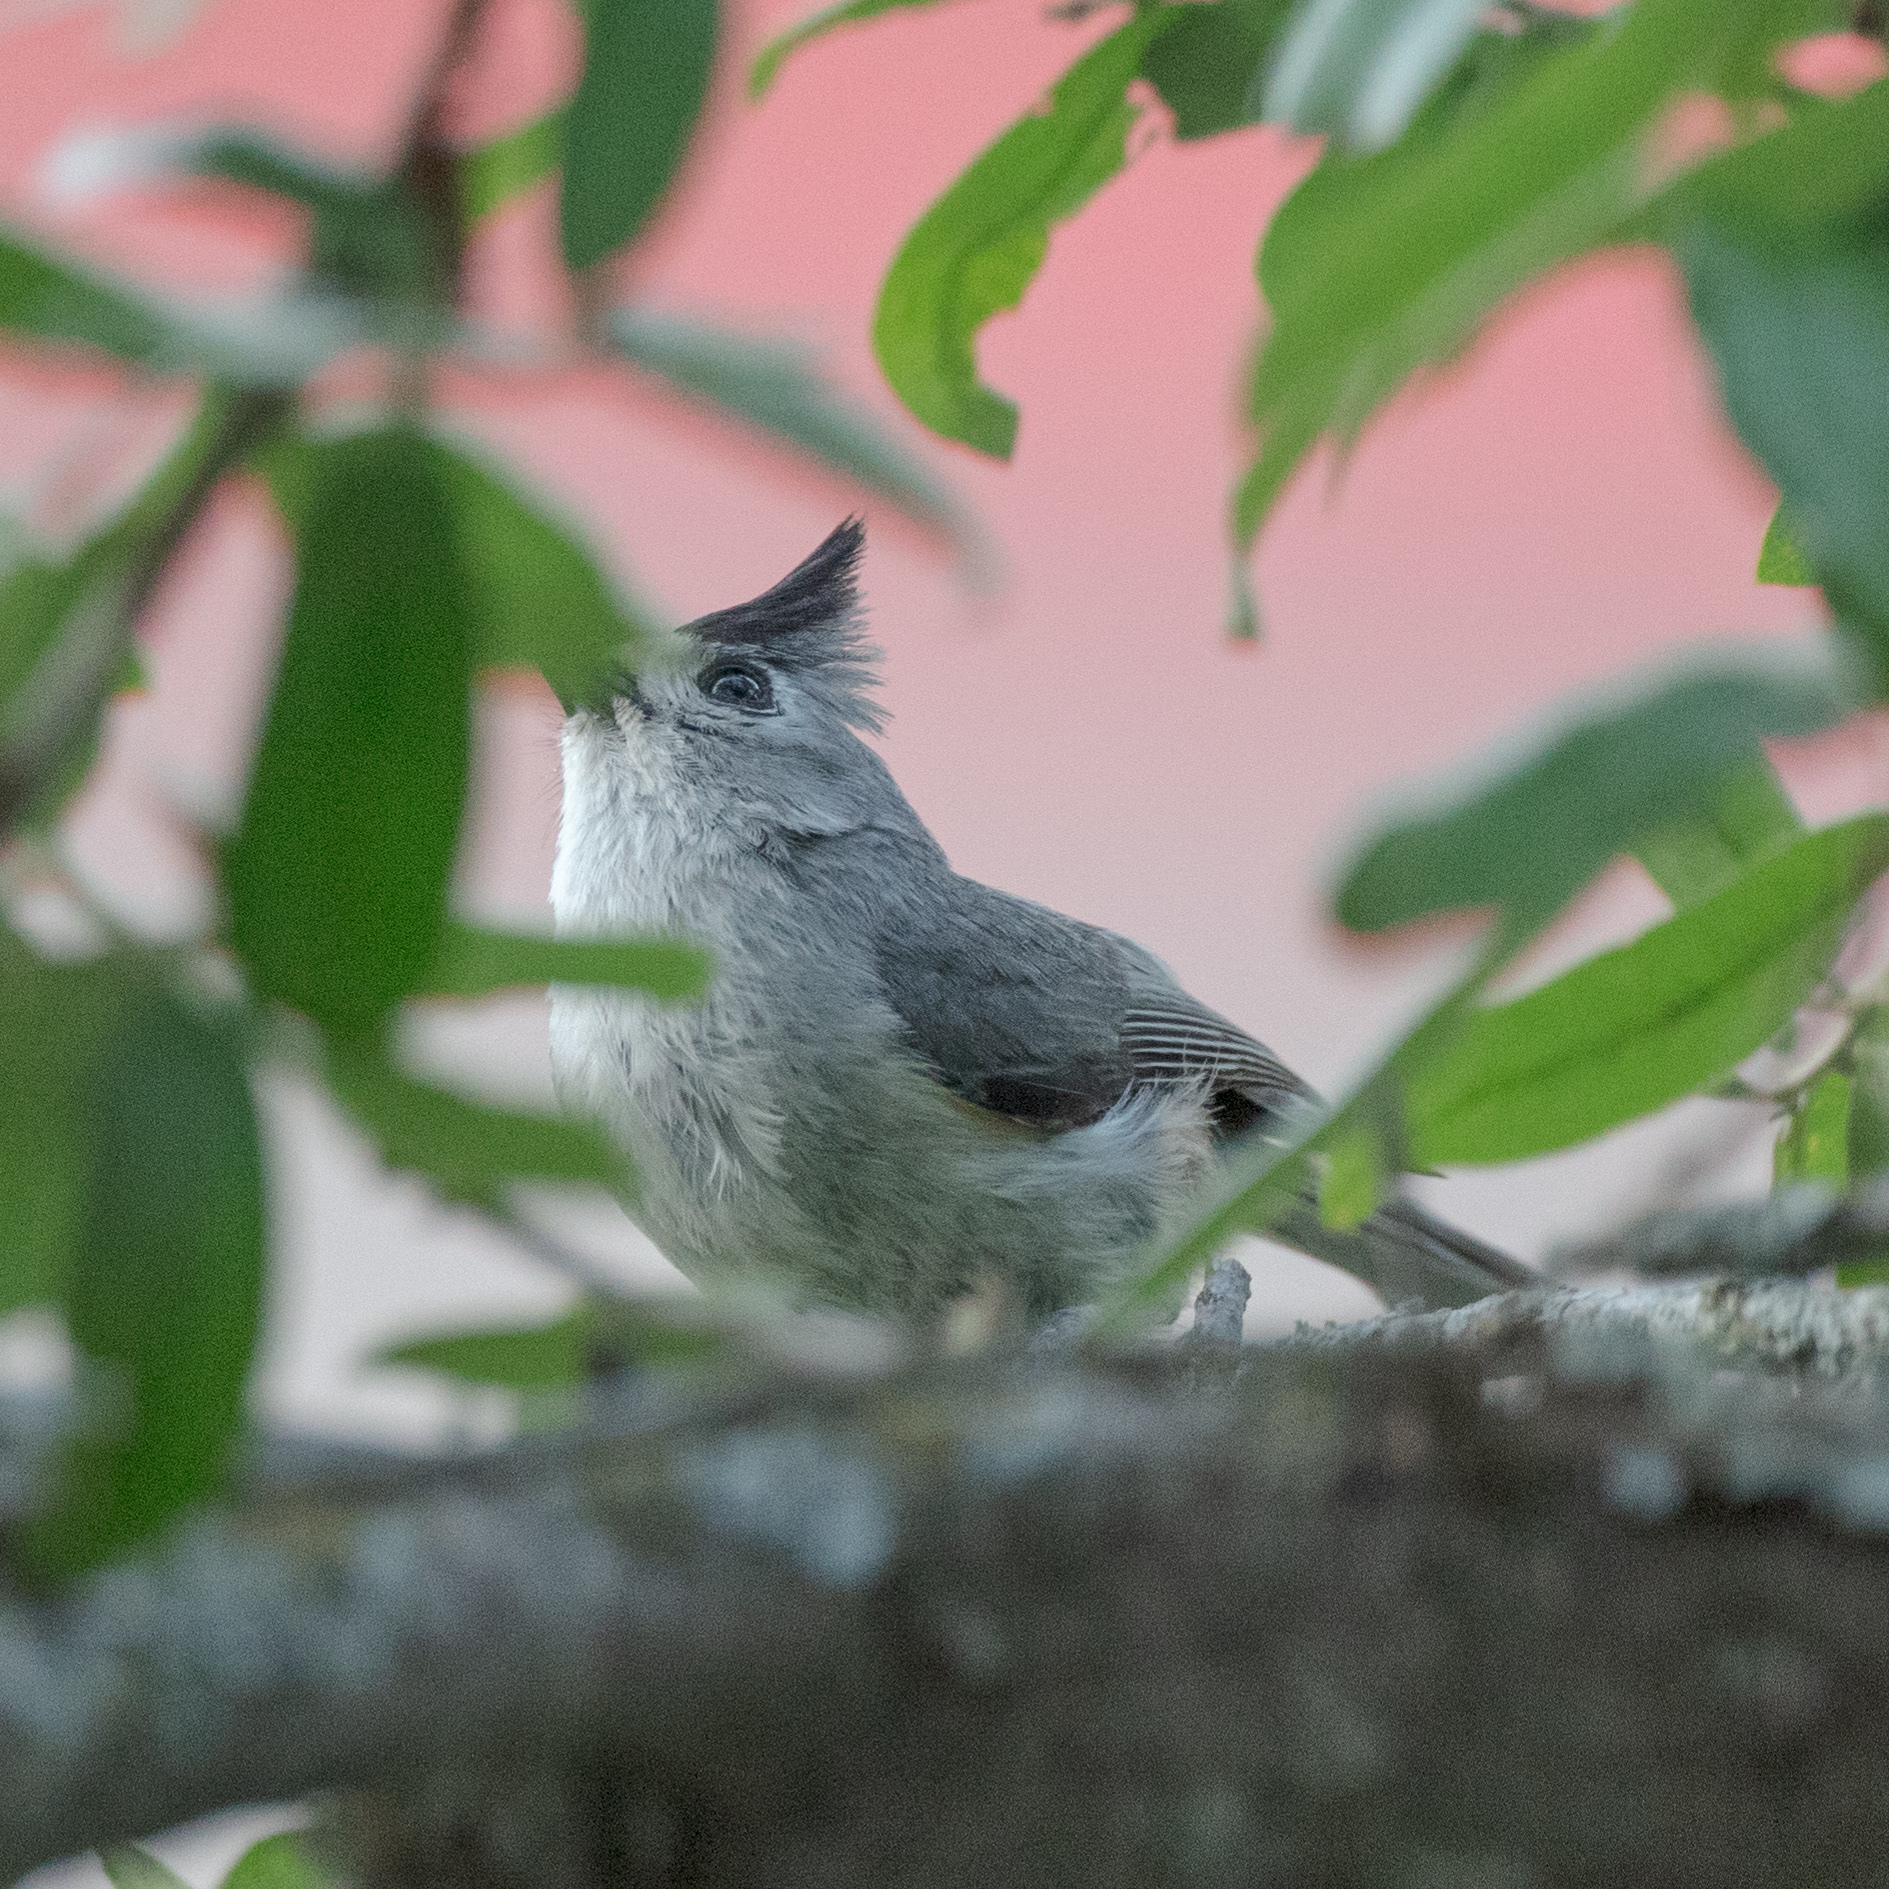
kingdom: Animalia
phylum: Chordata
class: Aves
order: Passeriformes
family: Paridae
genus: Baeolophus
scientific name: Baeolophus atricristatus
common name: Black-crested titmouse
